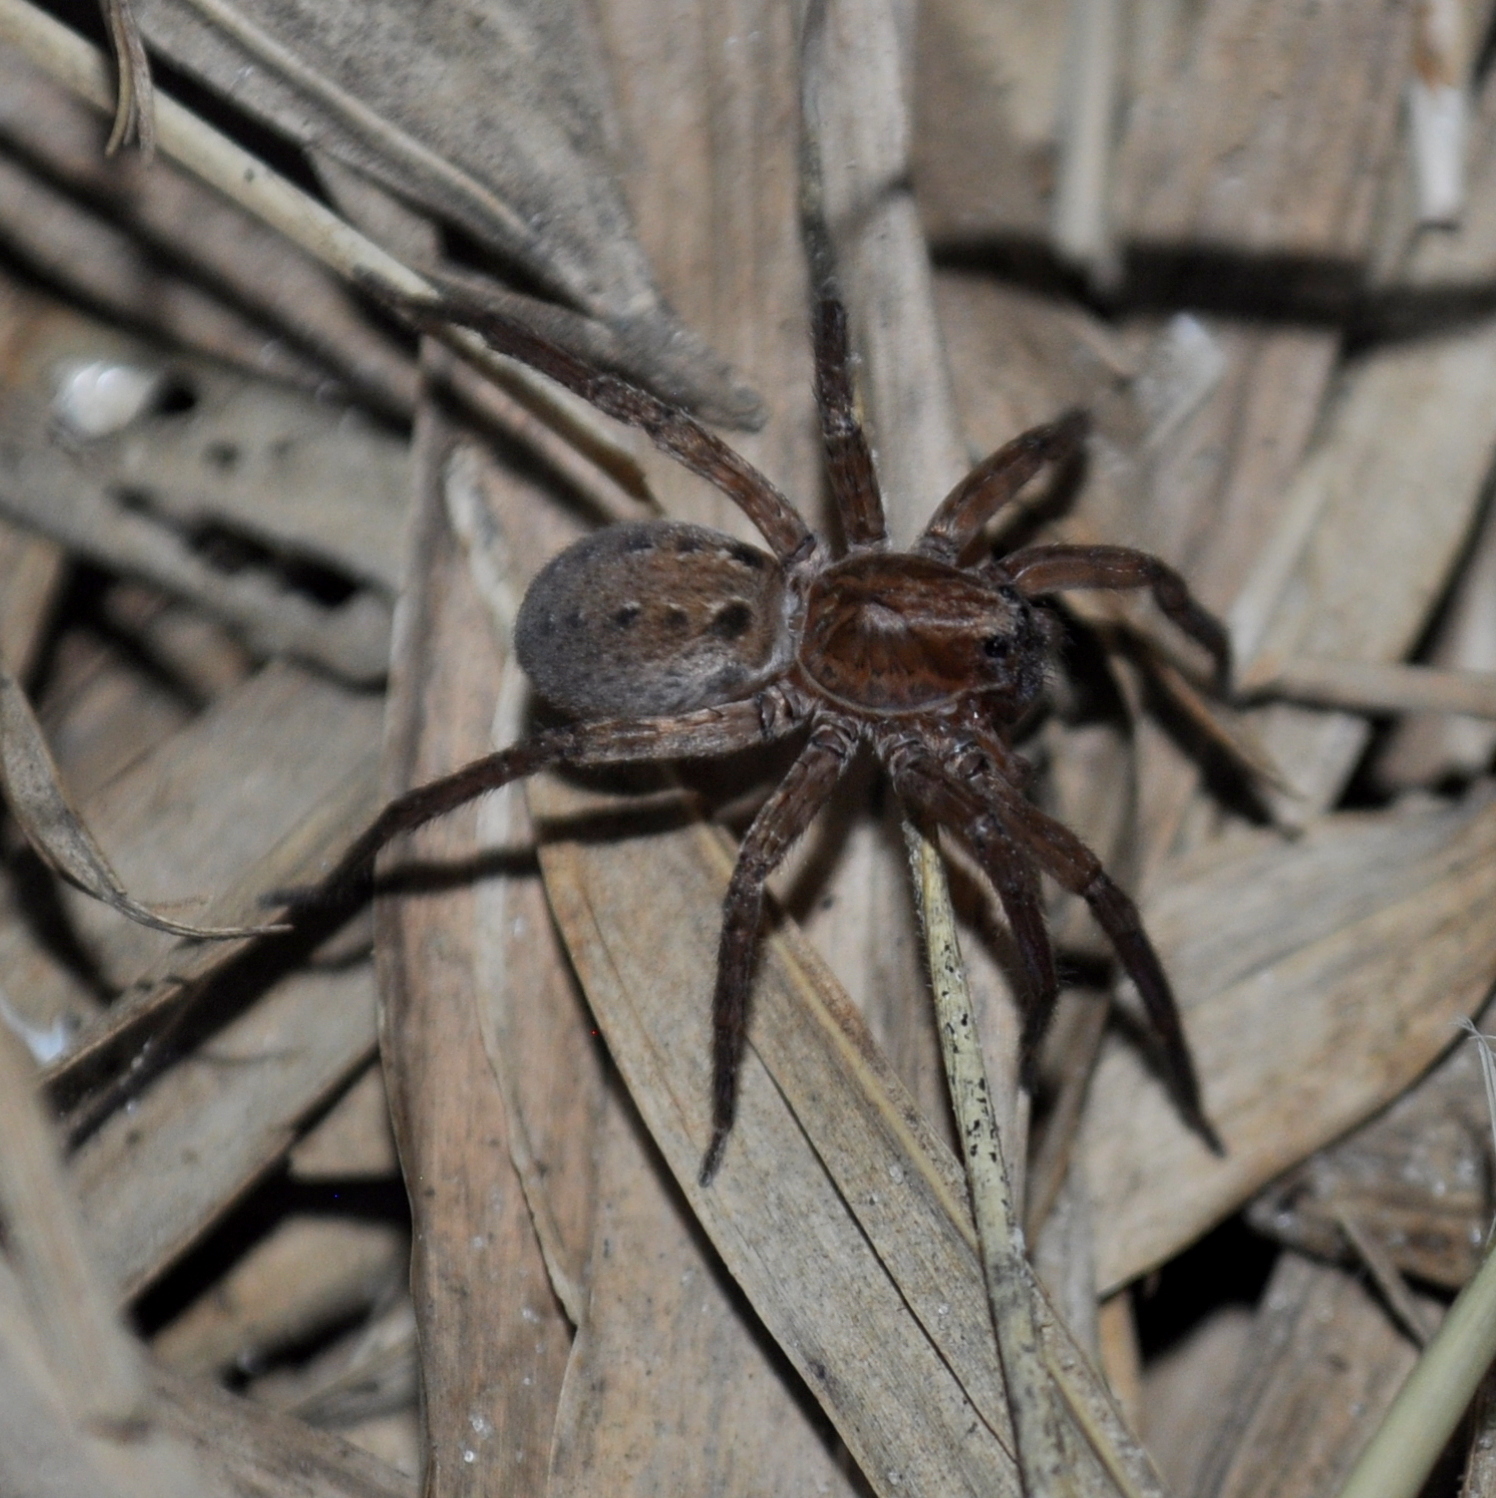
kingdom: Animalia
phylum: Arthropoda
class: Arachnida
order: Araneae
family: Ctenidae
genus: Asthenoctenus
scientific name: Asthenoctenus borellii
